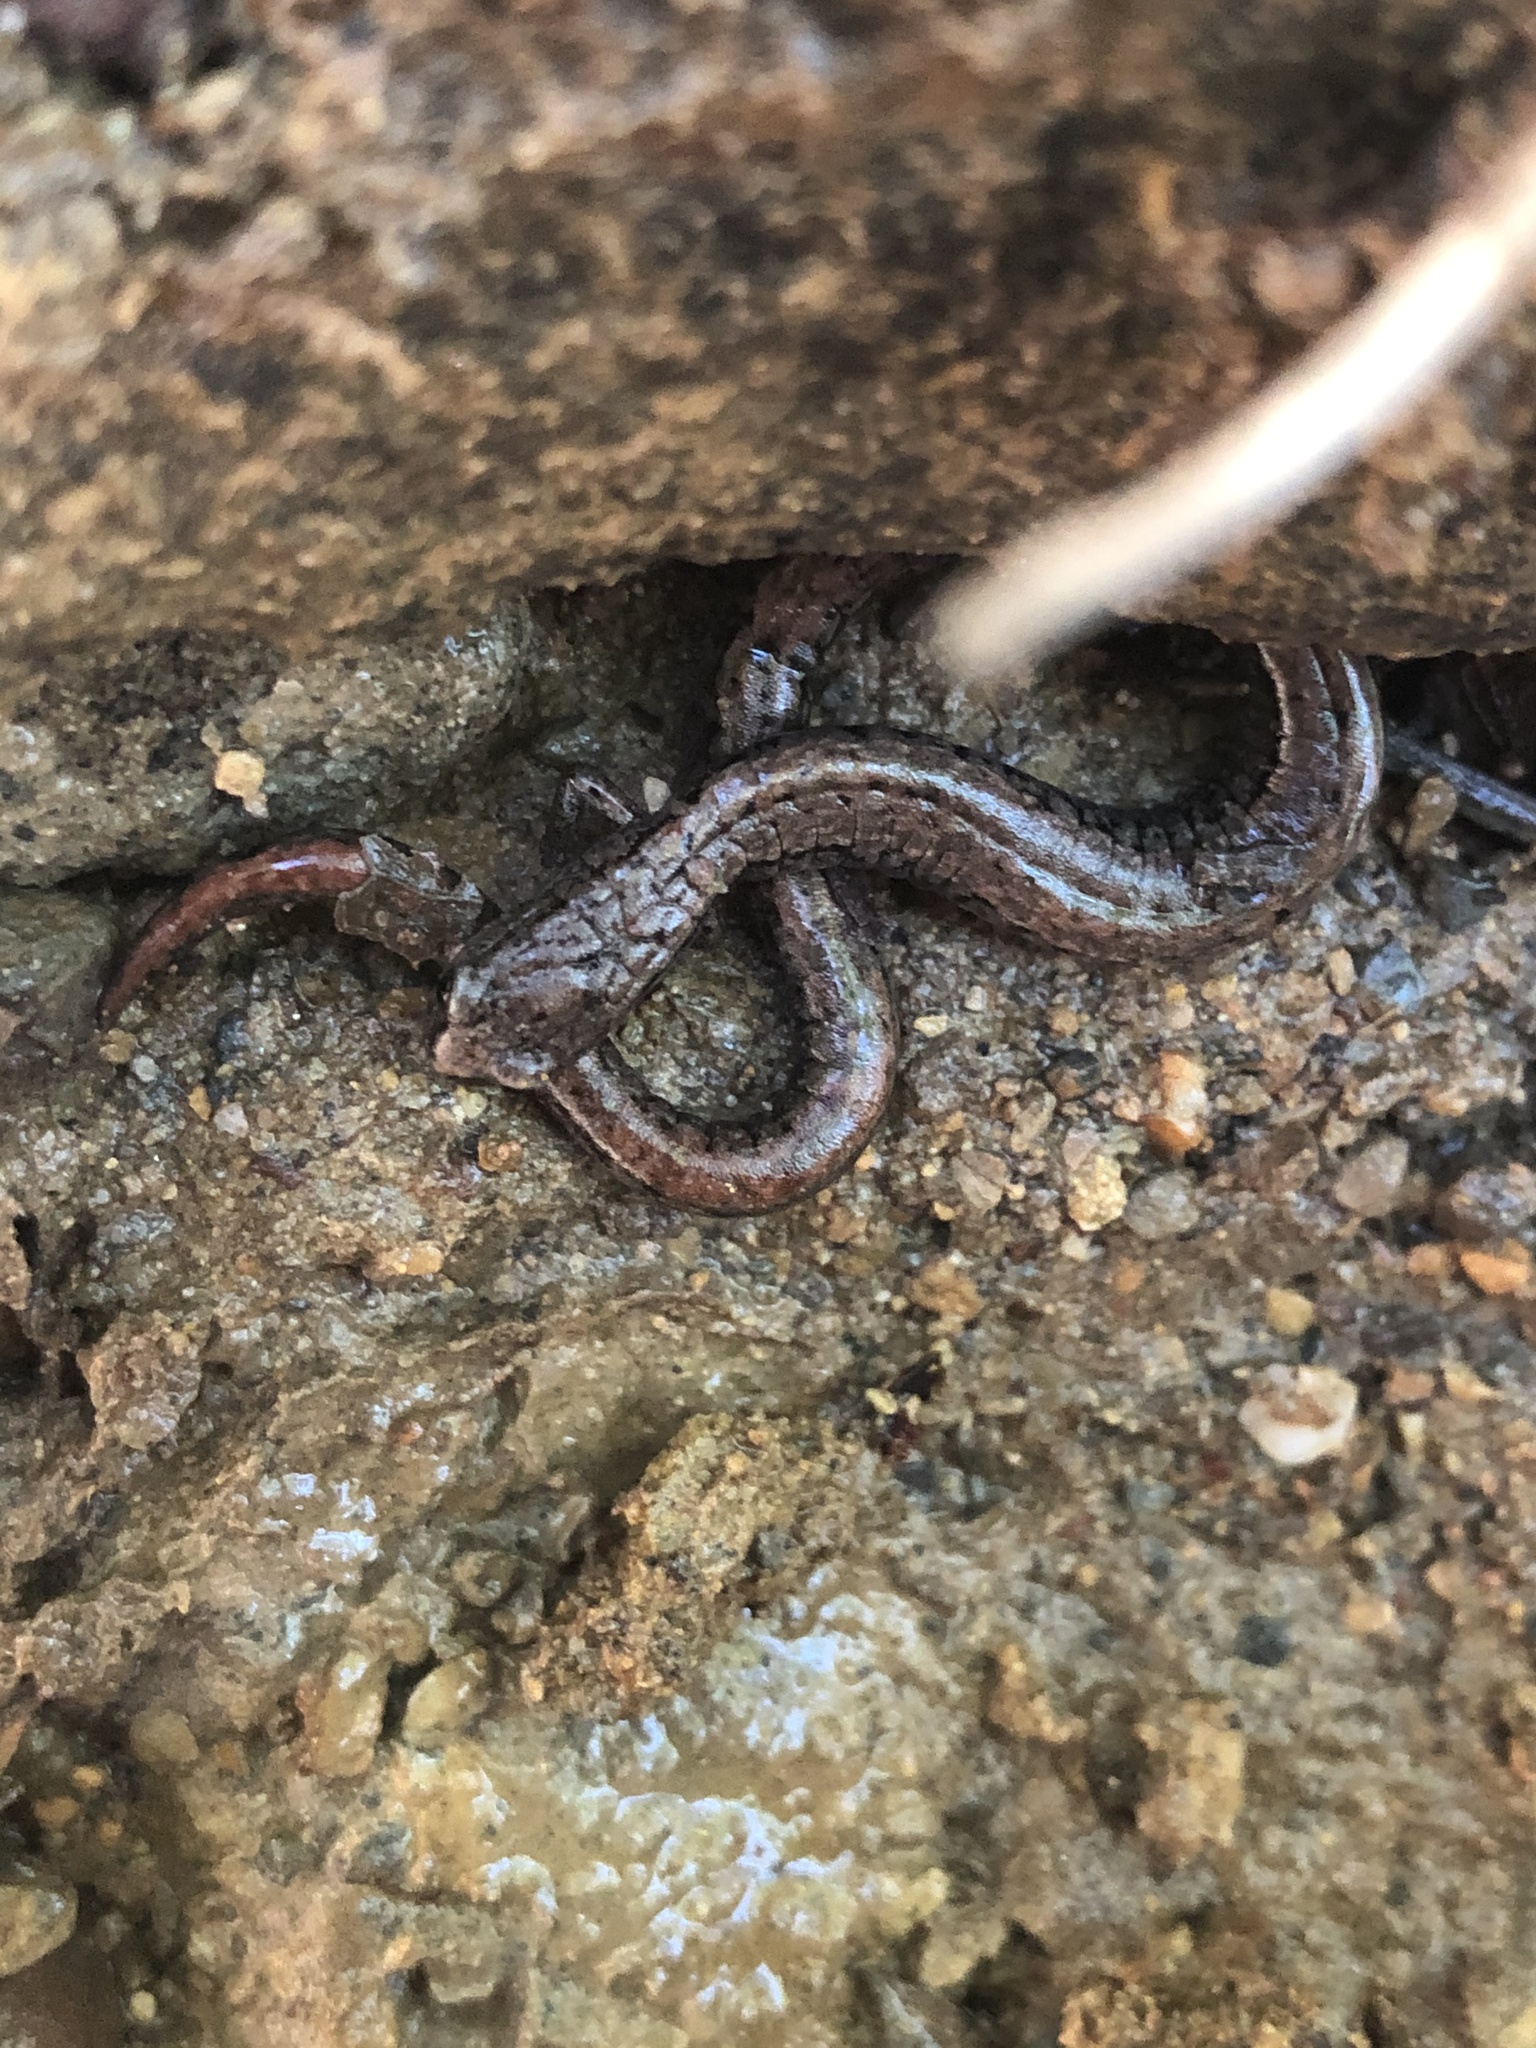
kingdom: Animalia
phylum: Chordata
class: Amphibia
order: Caudata
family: Plethodontidae
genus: Batrachoseps
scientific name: Batrachoseps attenuatus
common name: California slender salamander
